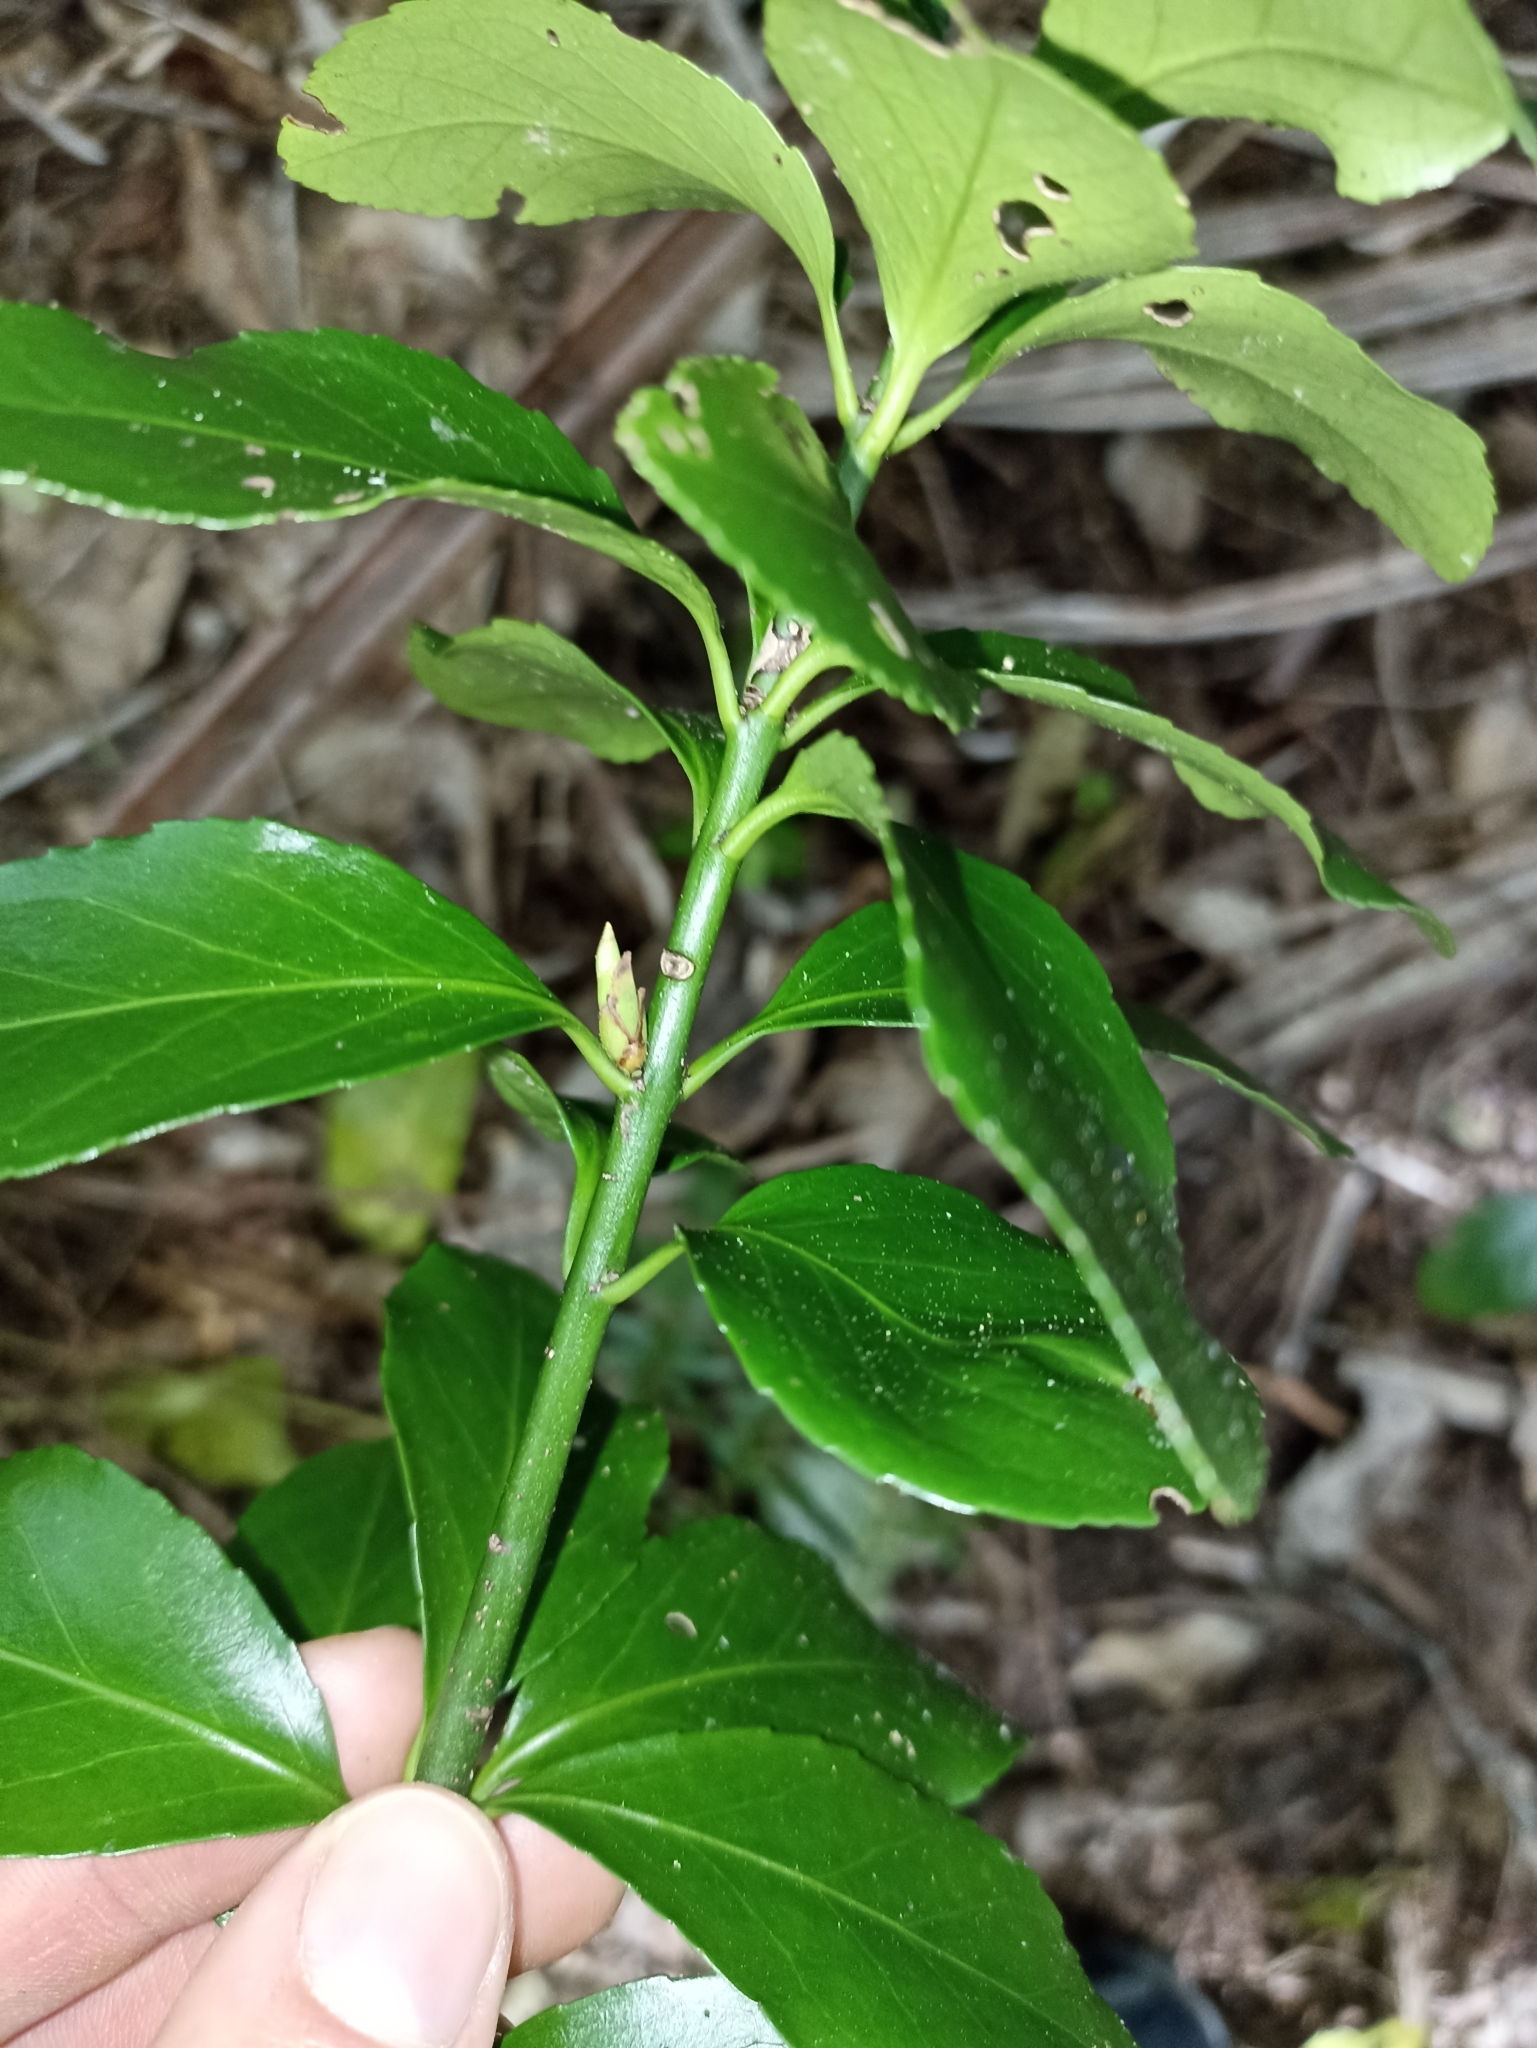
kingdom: Plantae
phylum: Tracheophyta
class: Magnoliopsida
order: Celastrales
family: Celastraceae
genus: Euonymus
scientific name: Euonymus japonicus
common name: Japanese spindletree
